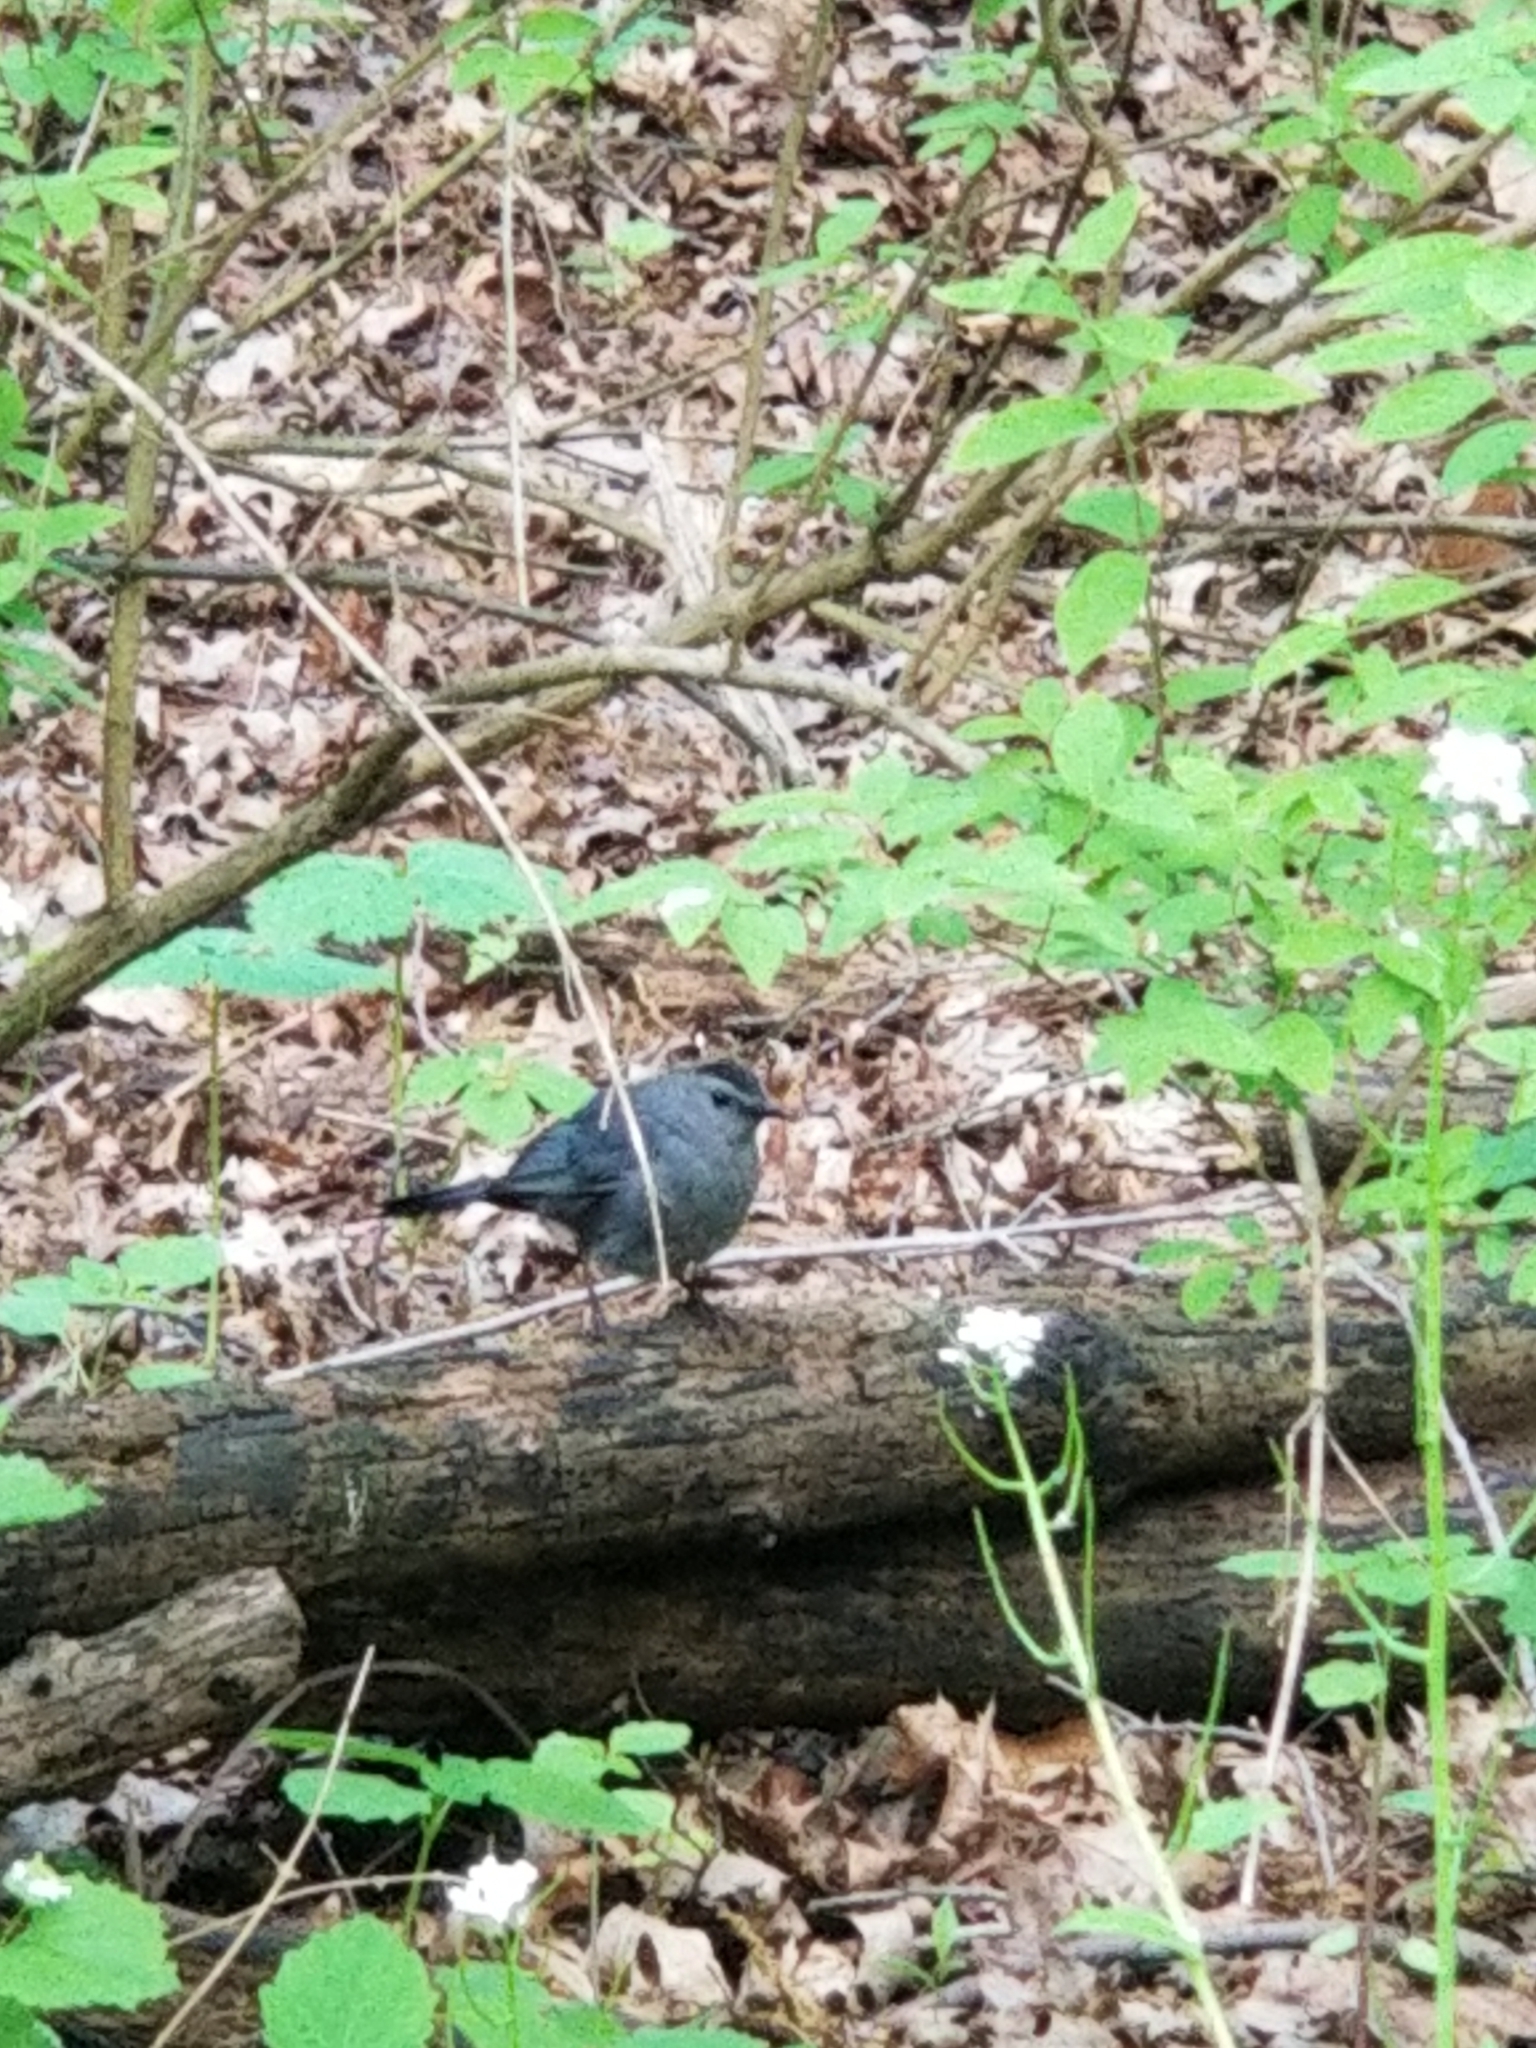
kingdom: Animalia
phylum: Chordata
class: Aves
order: Passeriformes
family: Mimidae
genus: Dumetella
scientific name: Dumetella carolinensis
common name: Gray catbird
